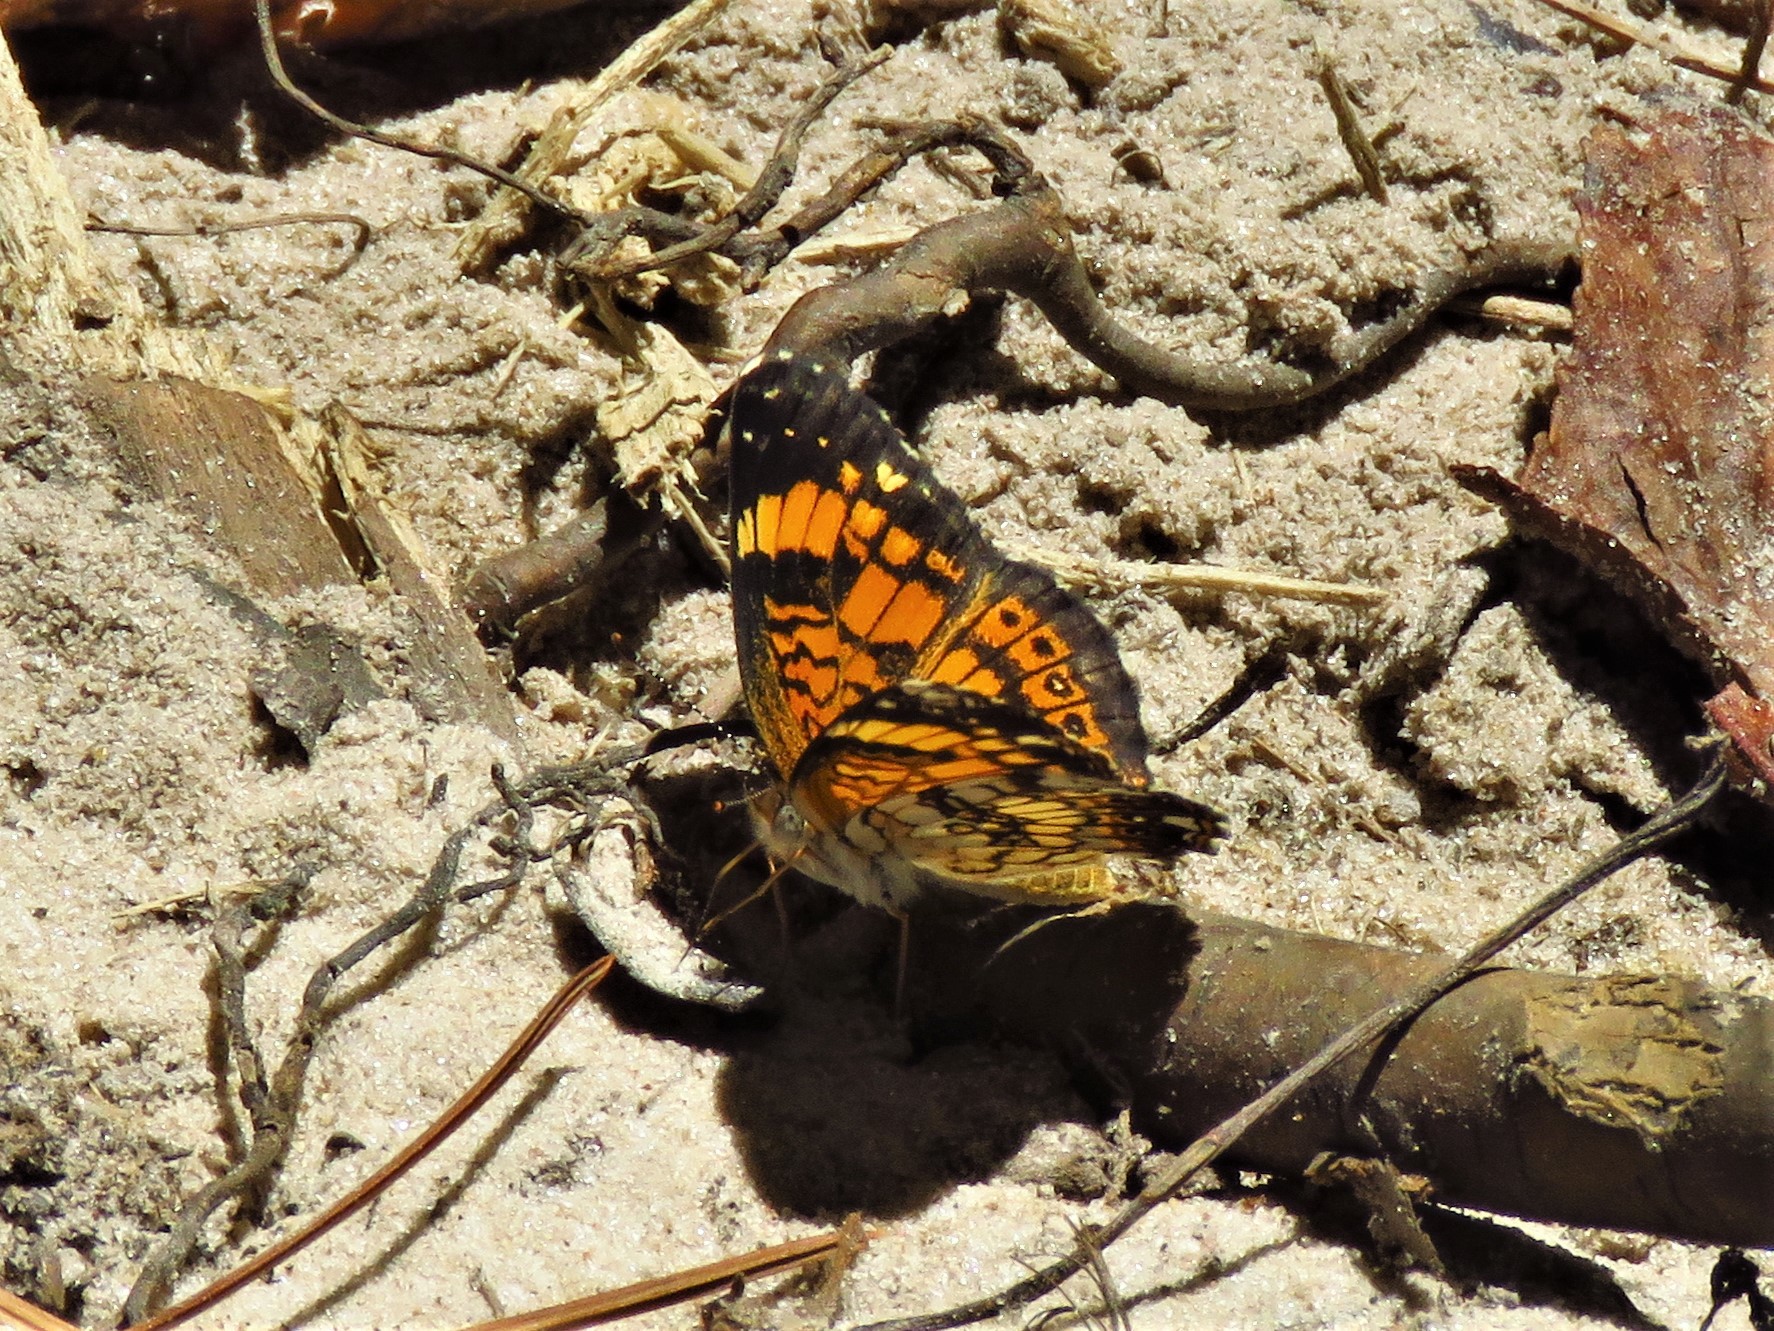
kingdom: Animalia
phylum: Arthropoda
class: Insecta
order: Lepidoptera
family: Nymphalidae
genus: Chlosyne
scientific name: Chlosyne nycteis
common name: Silvery checkerspot
